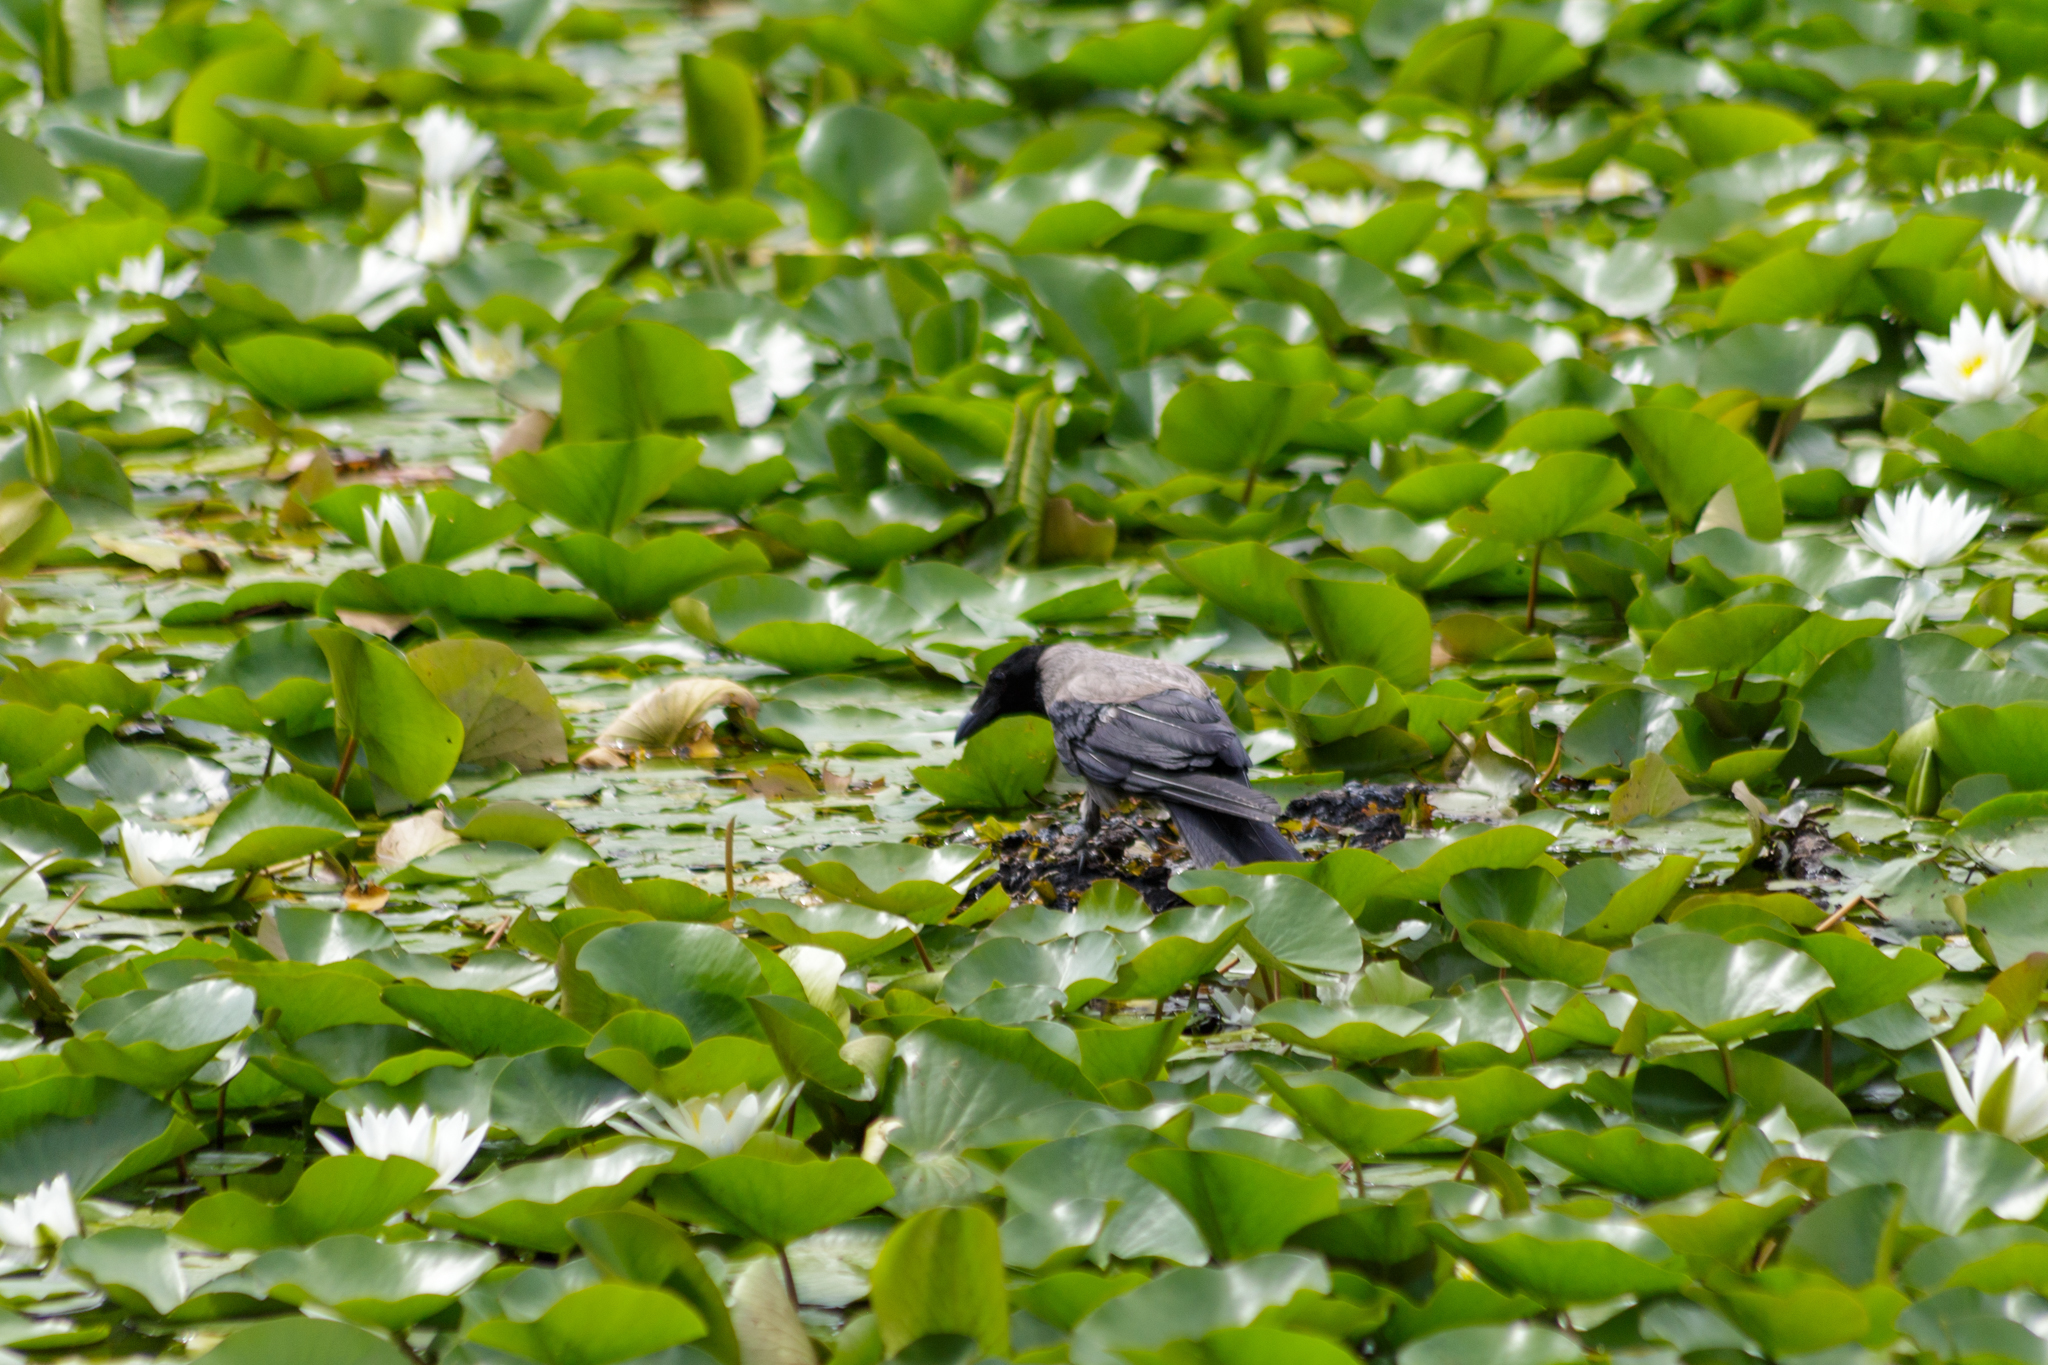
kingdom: Animalia
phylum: Chordata
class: Aves
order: Passeriformes
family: Corvidae
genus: Corvus
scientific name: Corvus cornix
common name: Hooded crow
